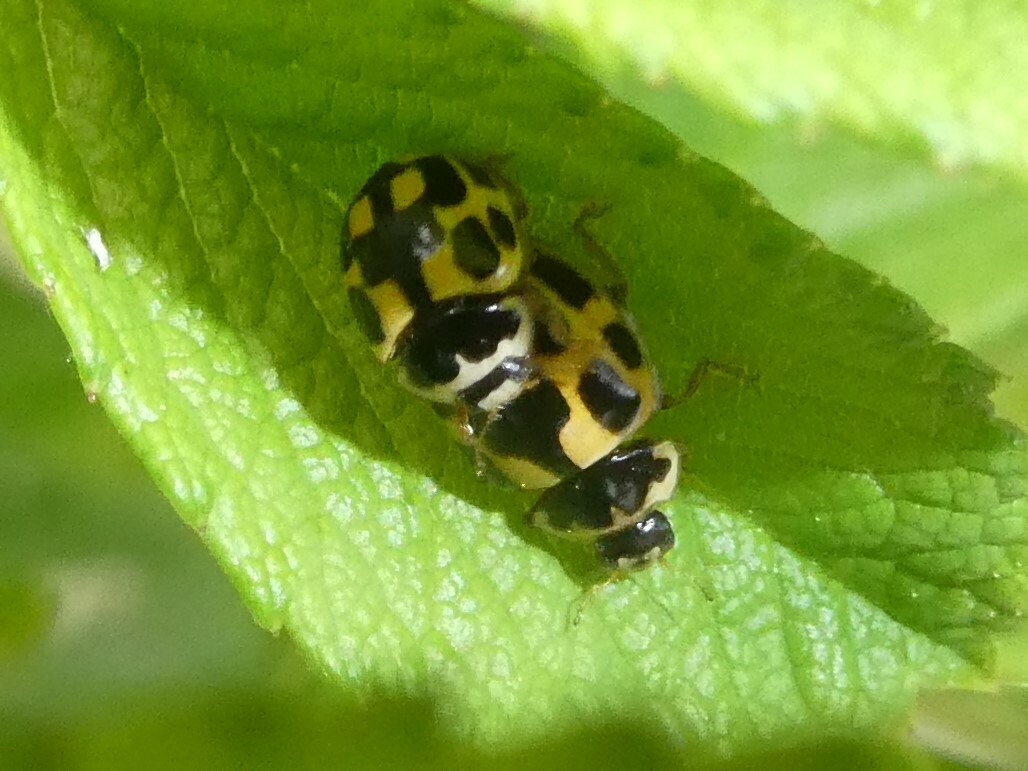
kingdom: Animalia
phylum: Arthropoda
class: Insecta
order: Coleoptera
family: Coccinellidae
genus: Propylaea
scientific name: Propylaea quatuordecimpunctata
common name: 14-spotted ladybird beetle
